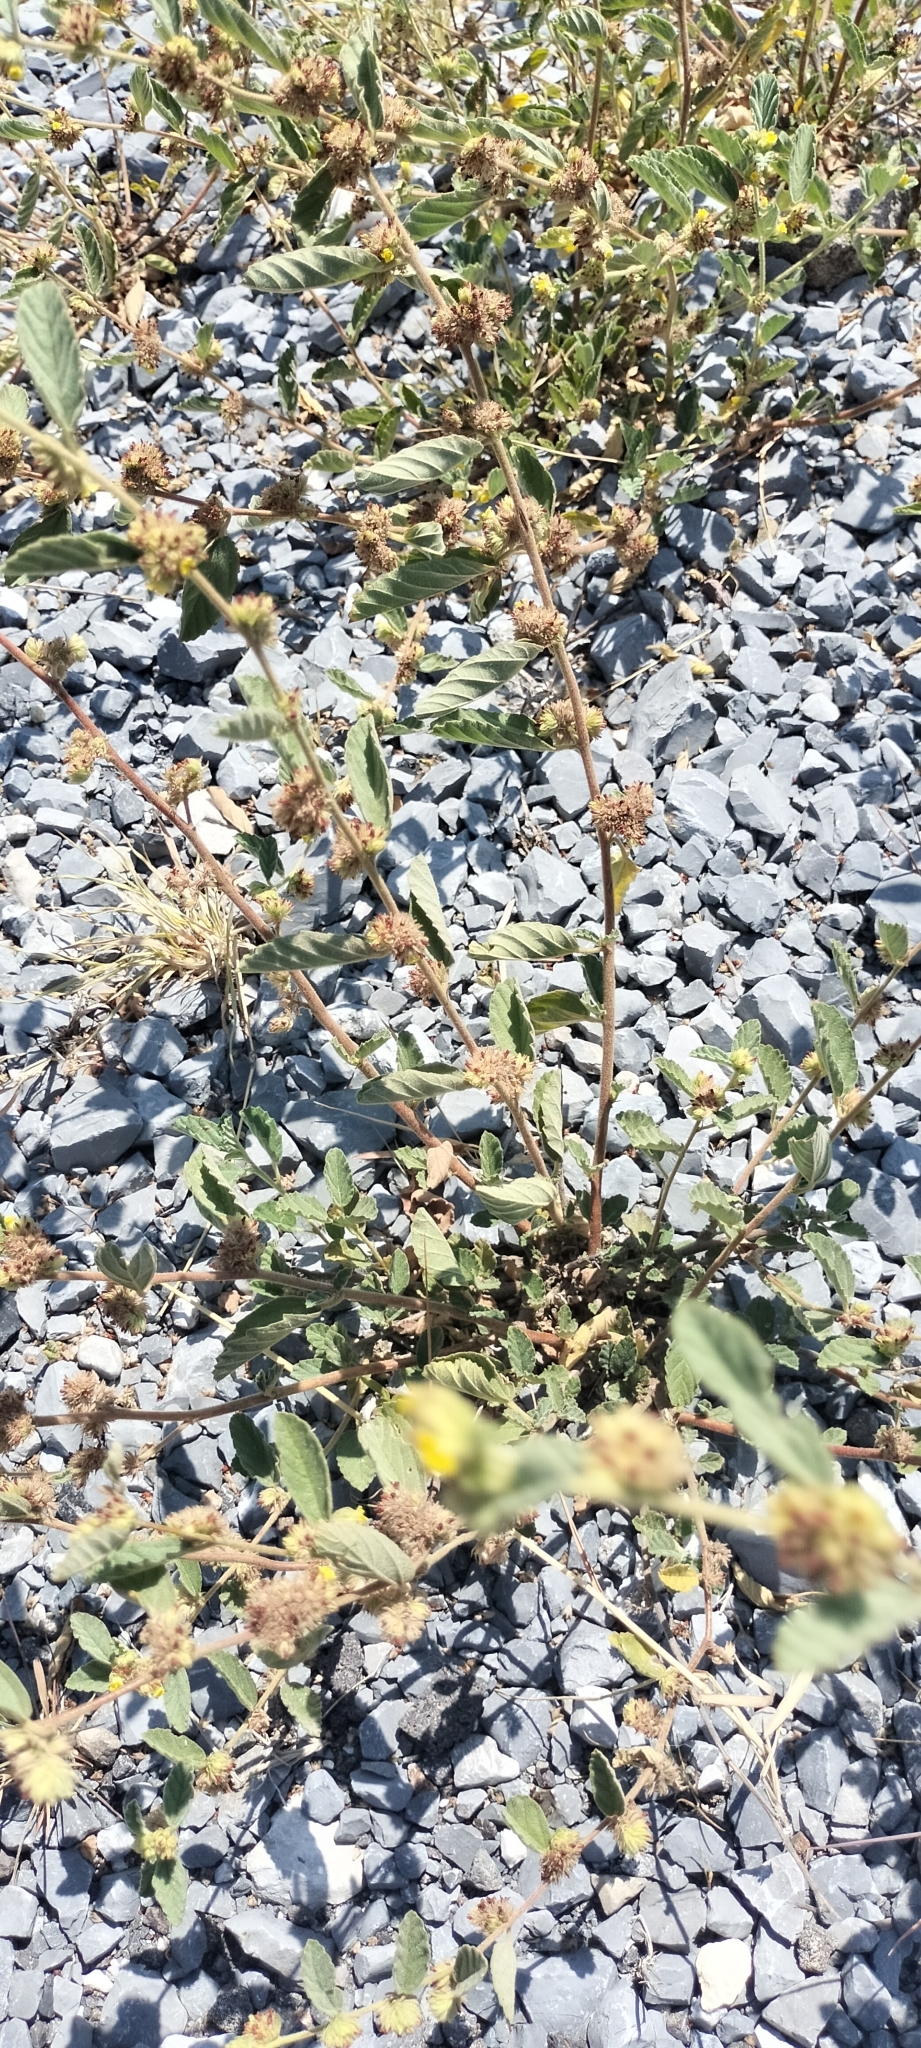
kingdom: Plantae
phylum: Tracheophyta
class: Magnoliopsida
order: Malvales
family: Malvaceae
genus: Waltheria
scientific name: Waltheria indica
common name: Leather-coat
